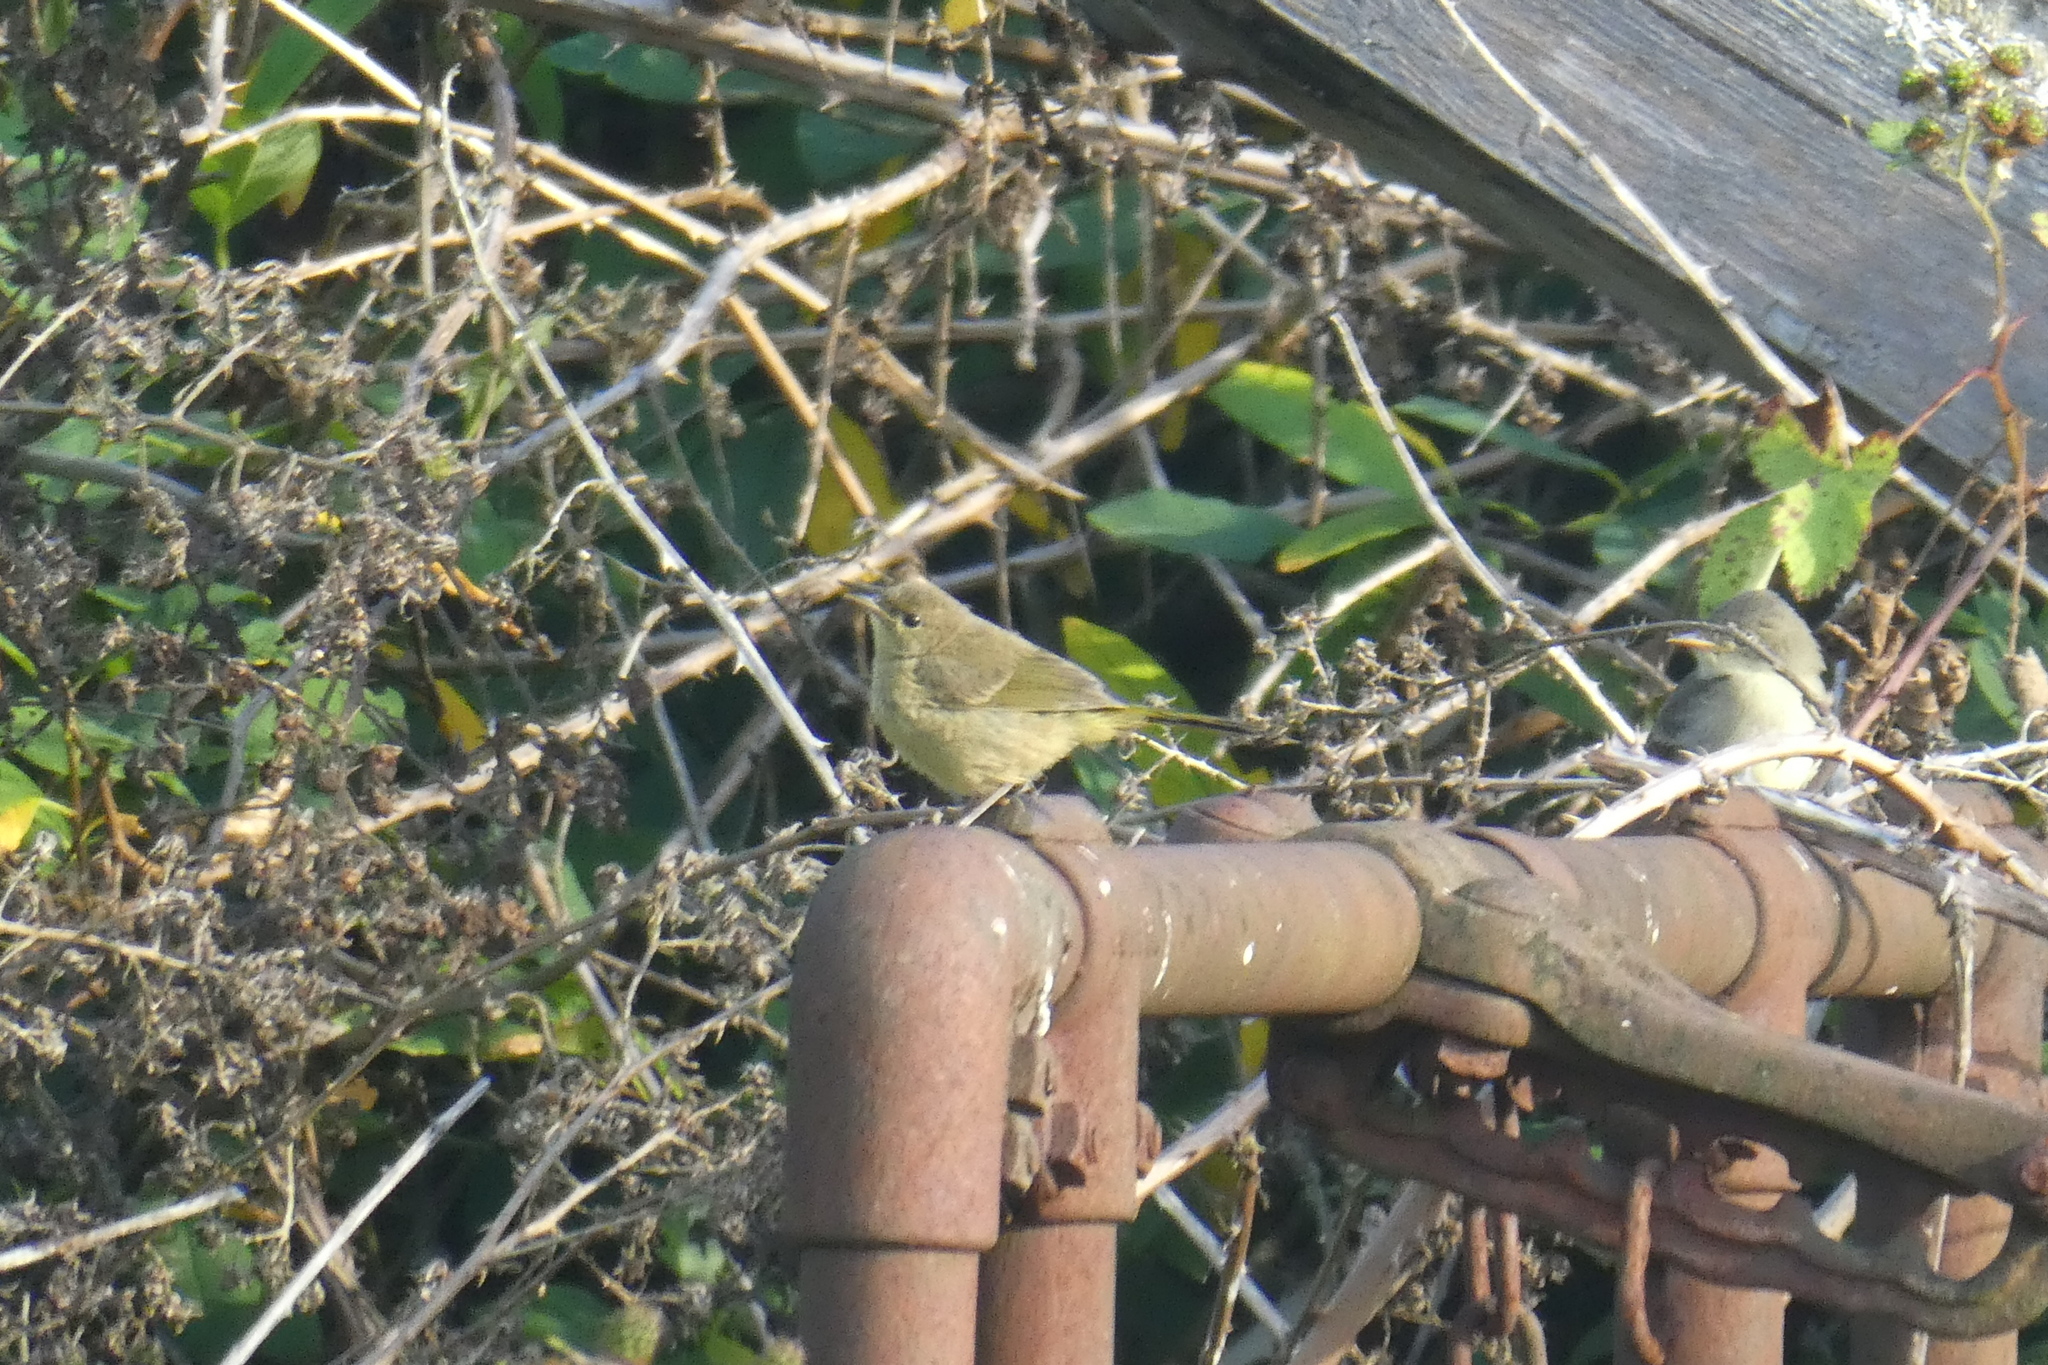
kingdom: Animalia
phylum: Chordata
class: Aves
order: Passeriformes
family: Parulidae
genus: Leiothlypis
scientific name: Leiothlypis celata
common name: Orange-crowned warbler
